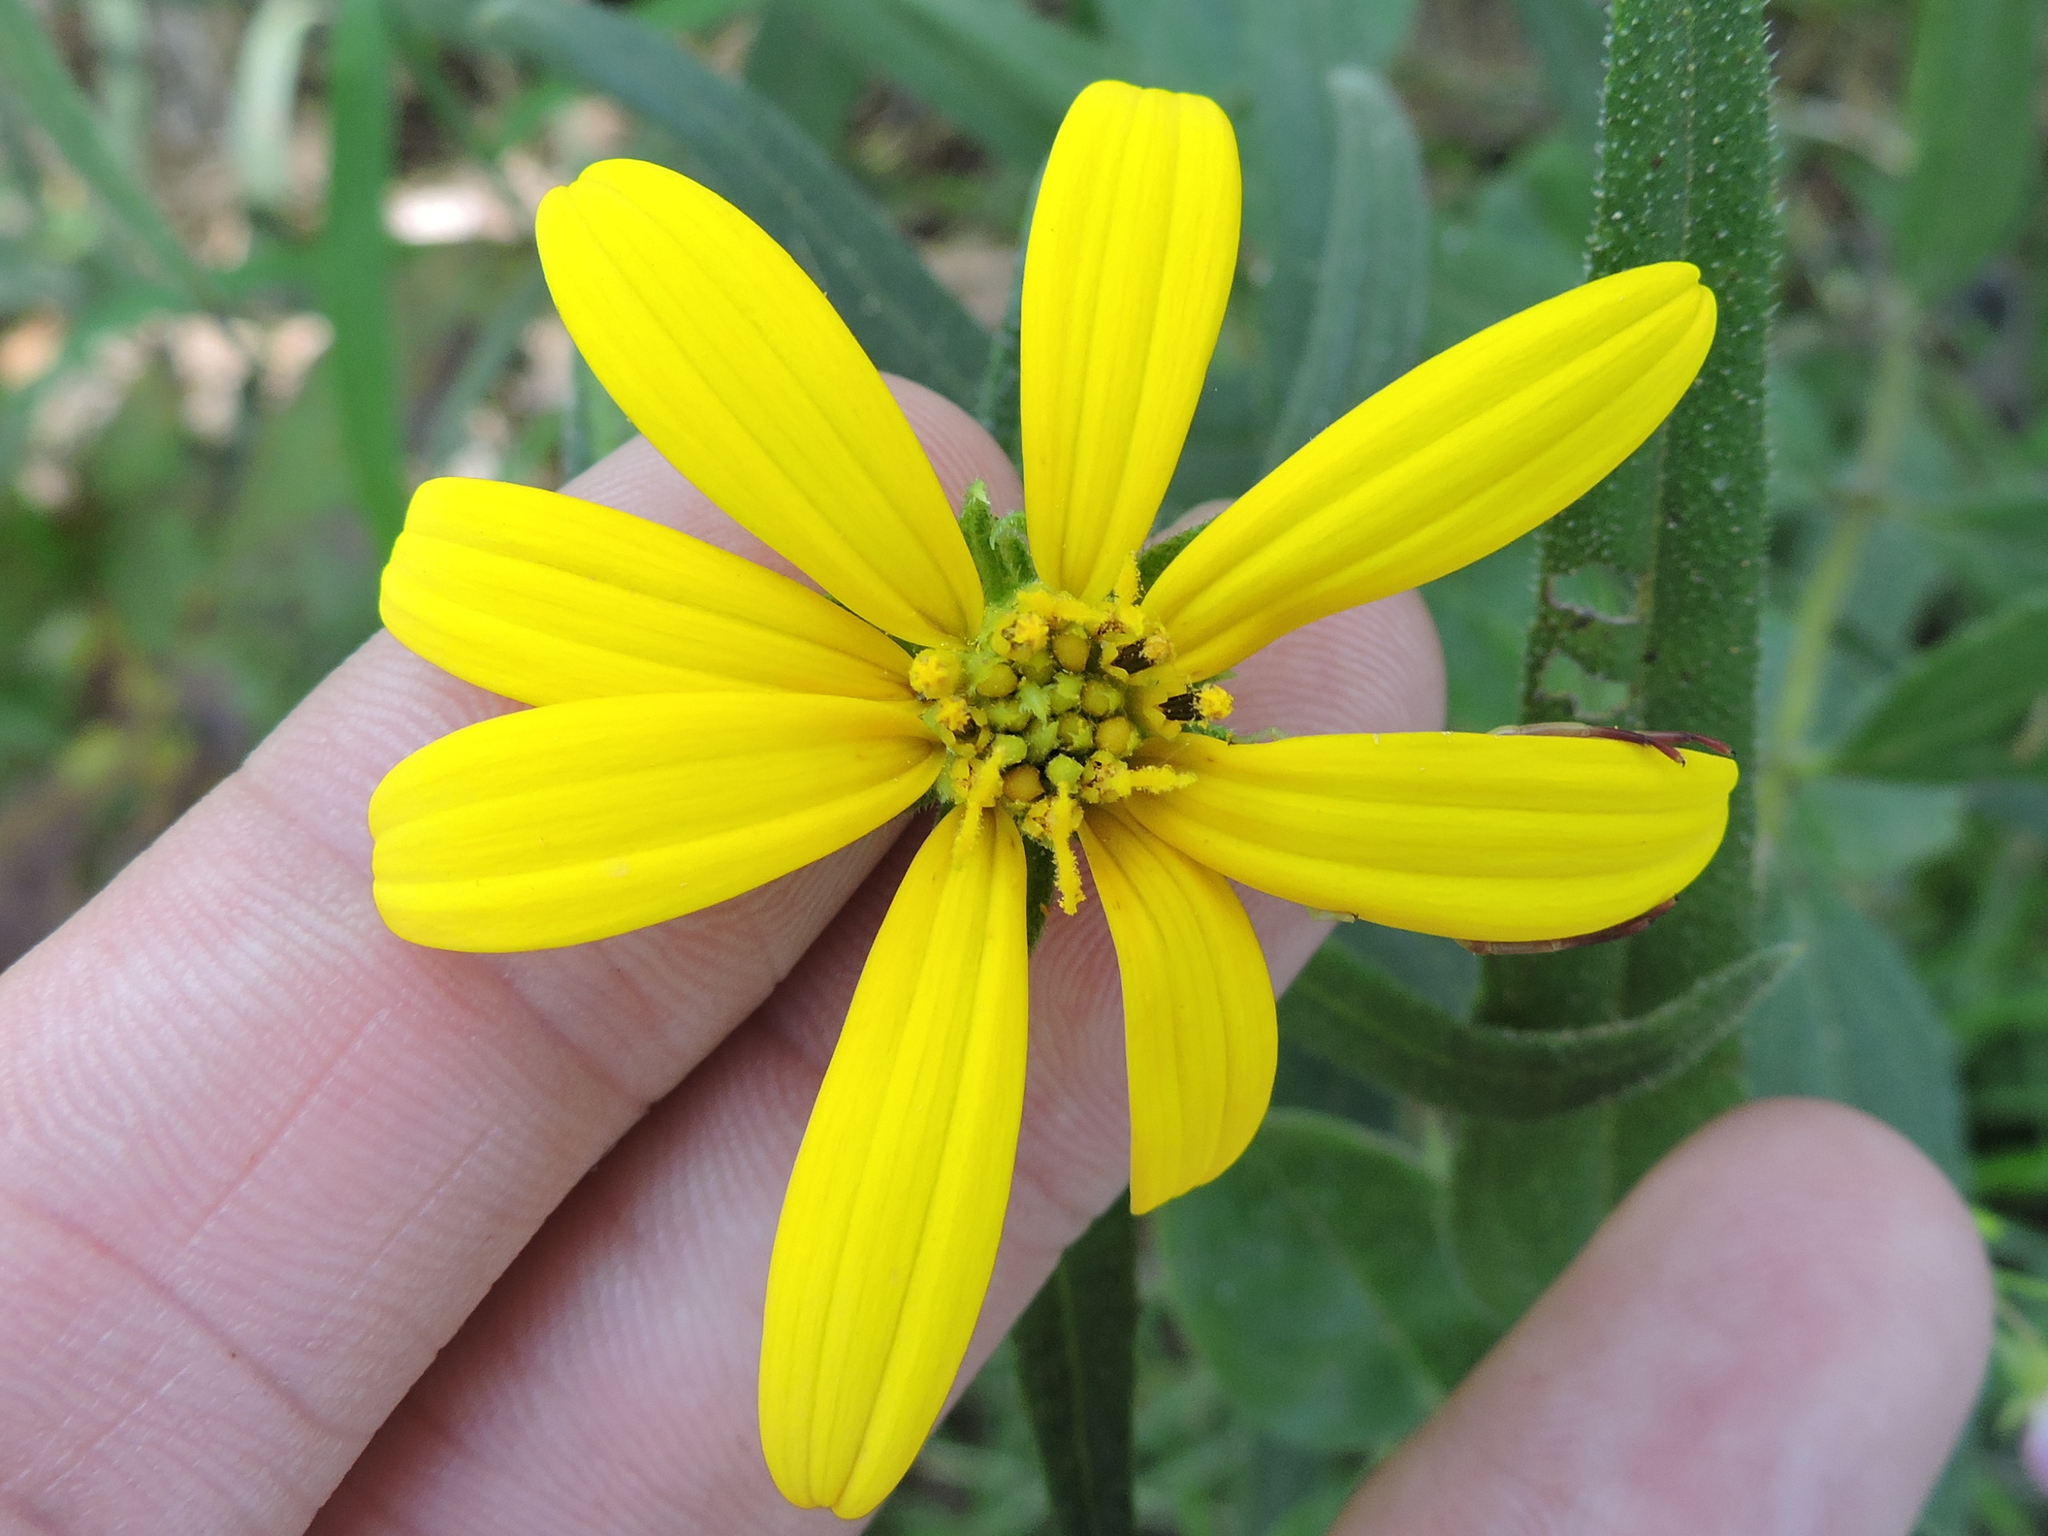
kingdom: Plantae
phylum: Tracheophyta
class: Magnoliopsida
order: Asterales
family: Asteraceae
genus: Helianthus
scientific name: Helianthus hirsutus
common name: Hairy sunflower
